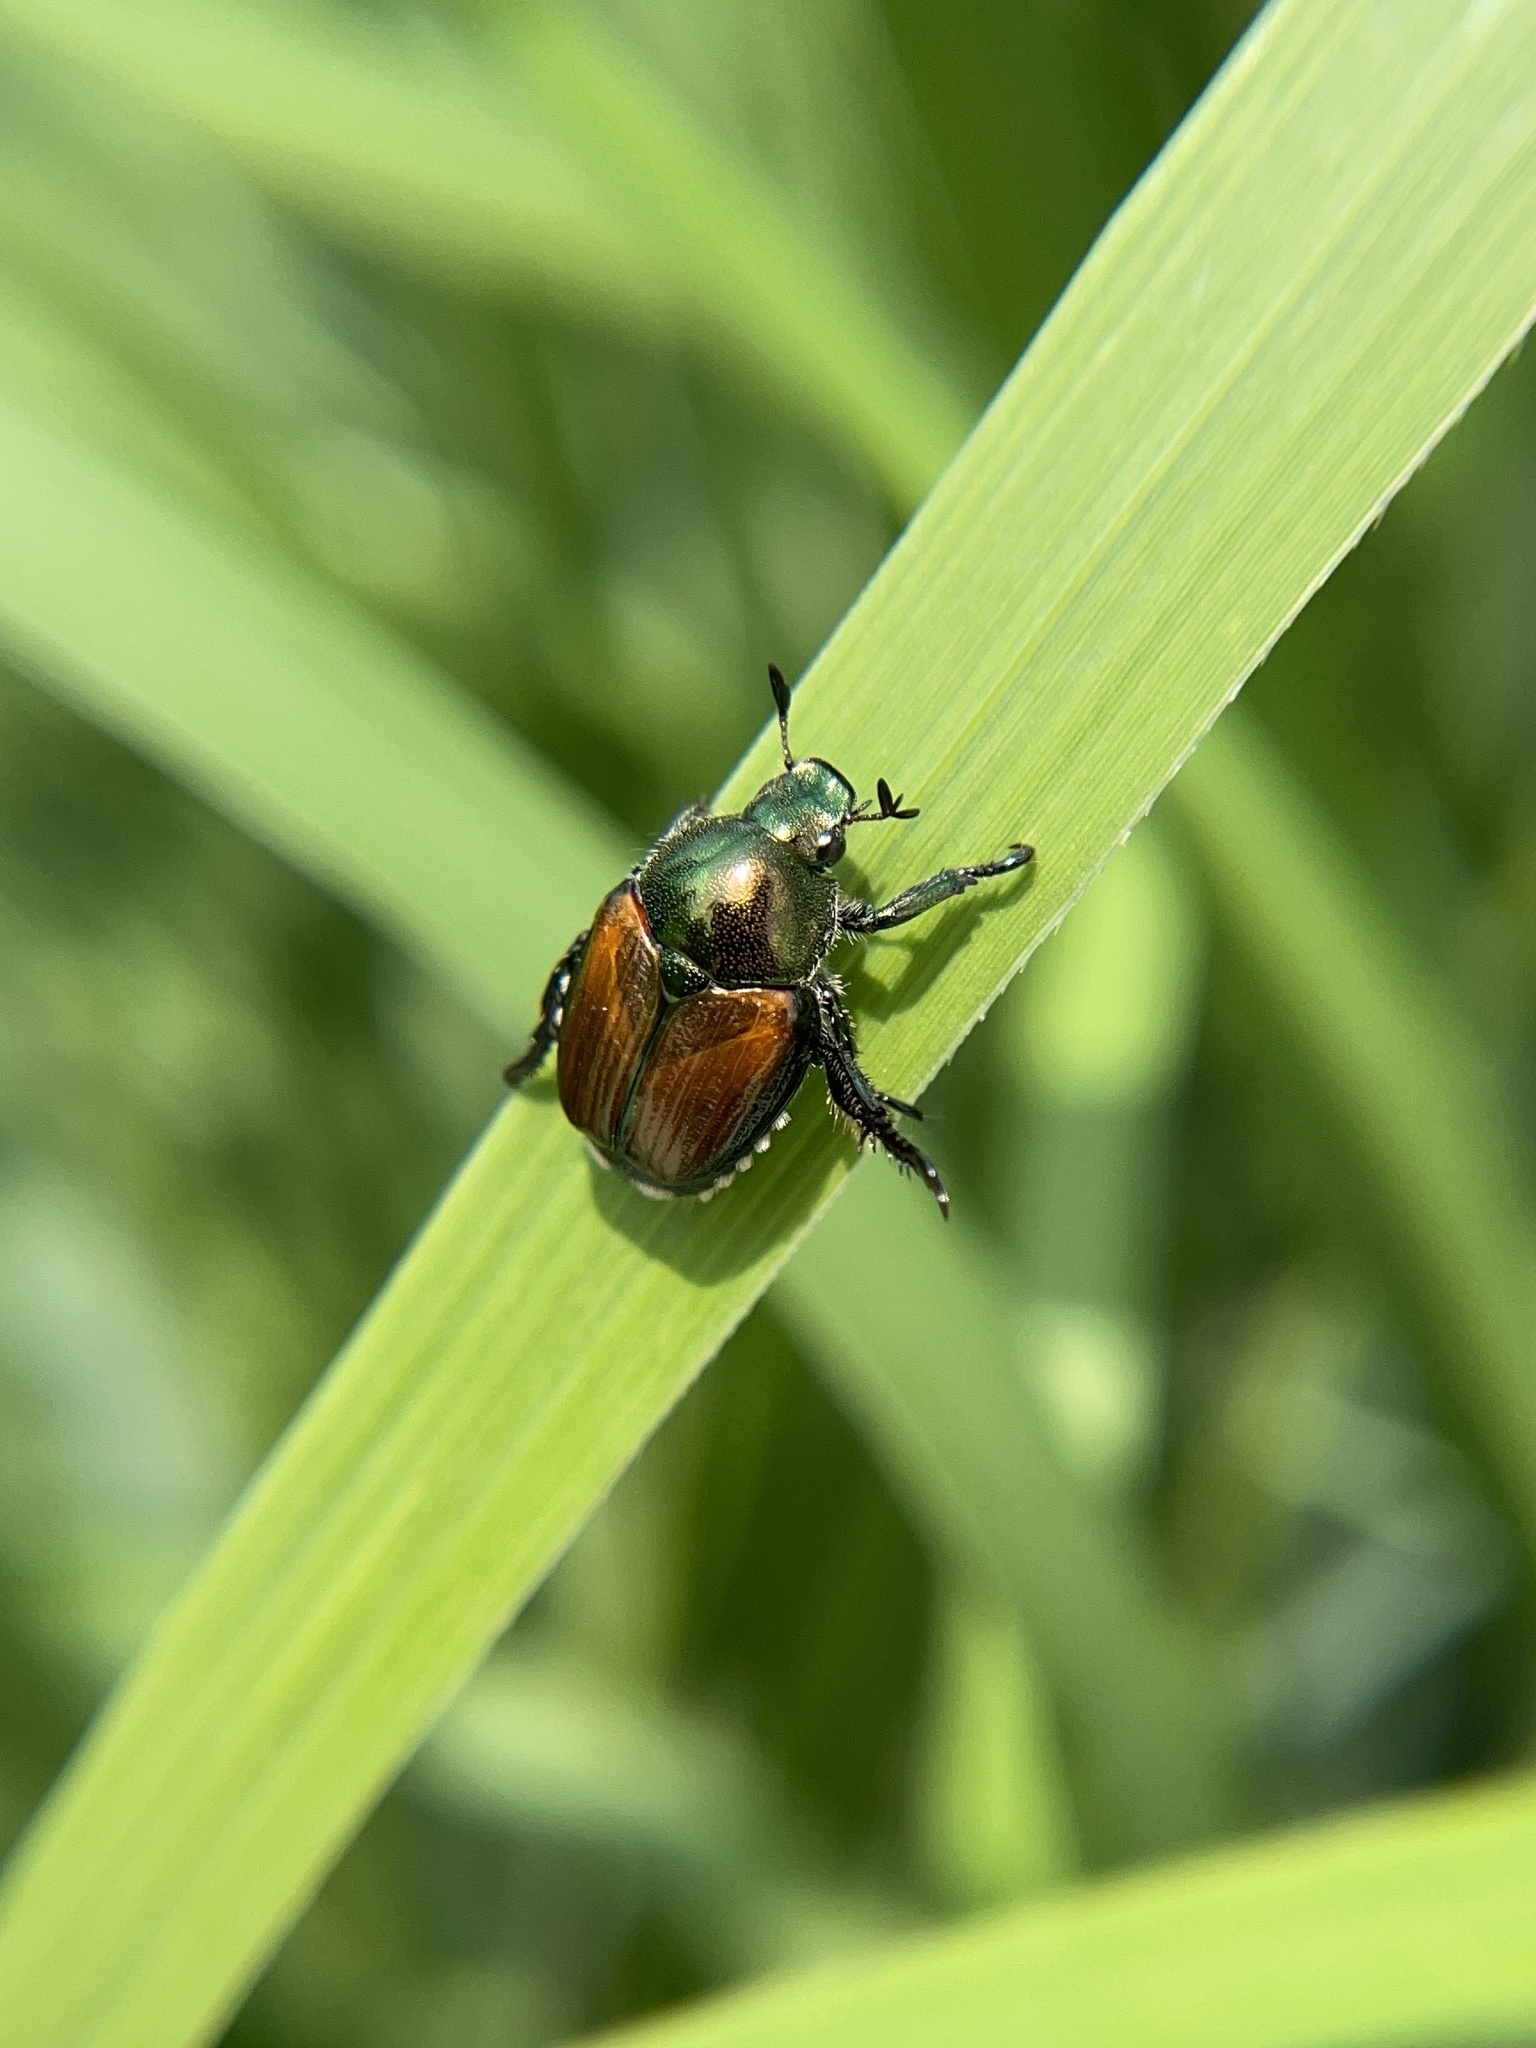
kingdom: Animalia
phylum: Arthropoda
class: Insecta
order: Coleoptera
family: Scarabaeidae
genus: Popillia
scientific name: Popillia japonica
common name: Japanese beetle
